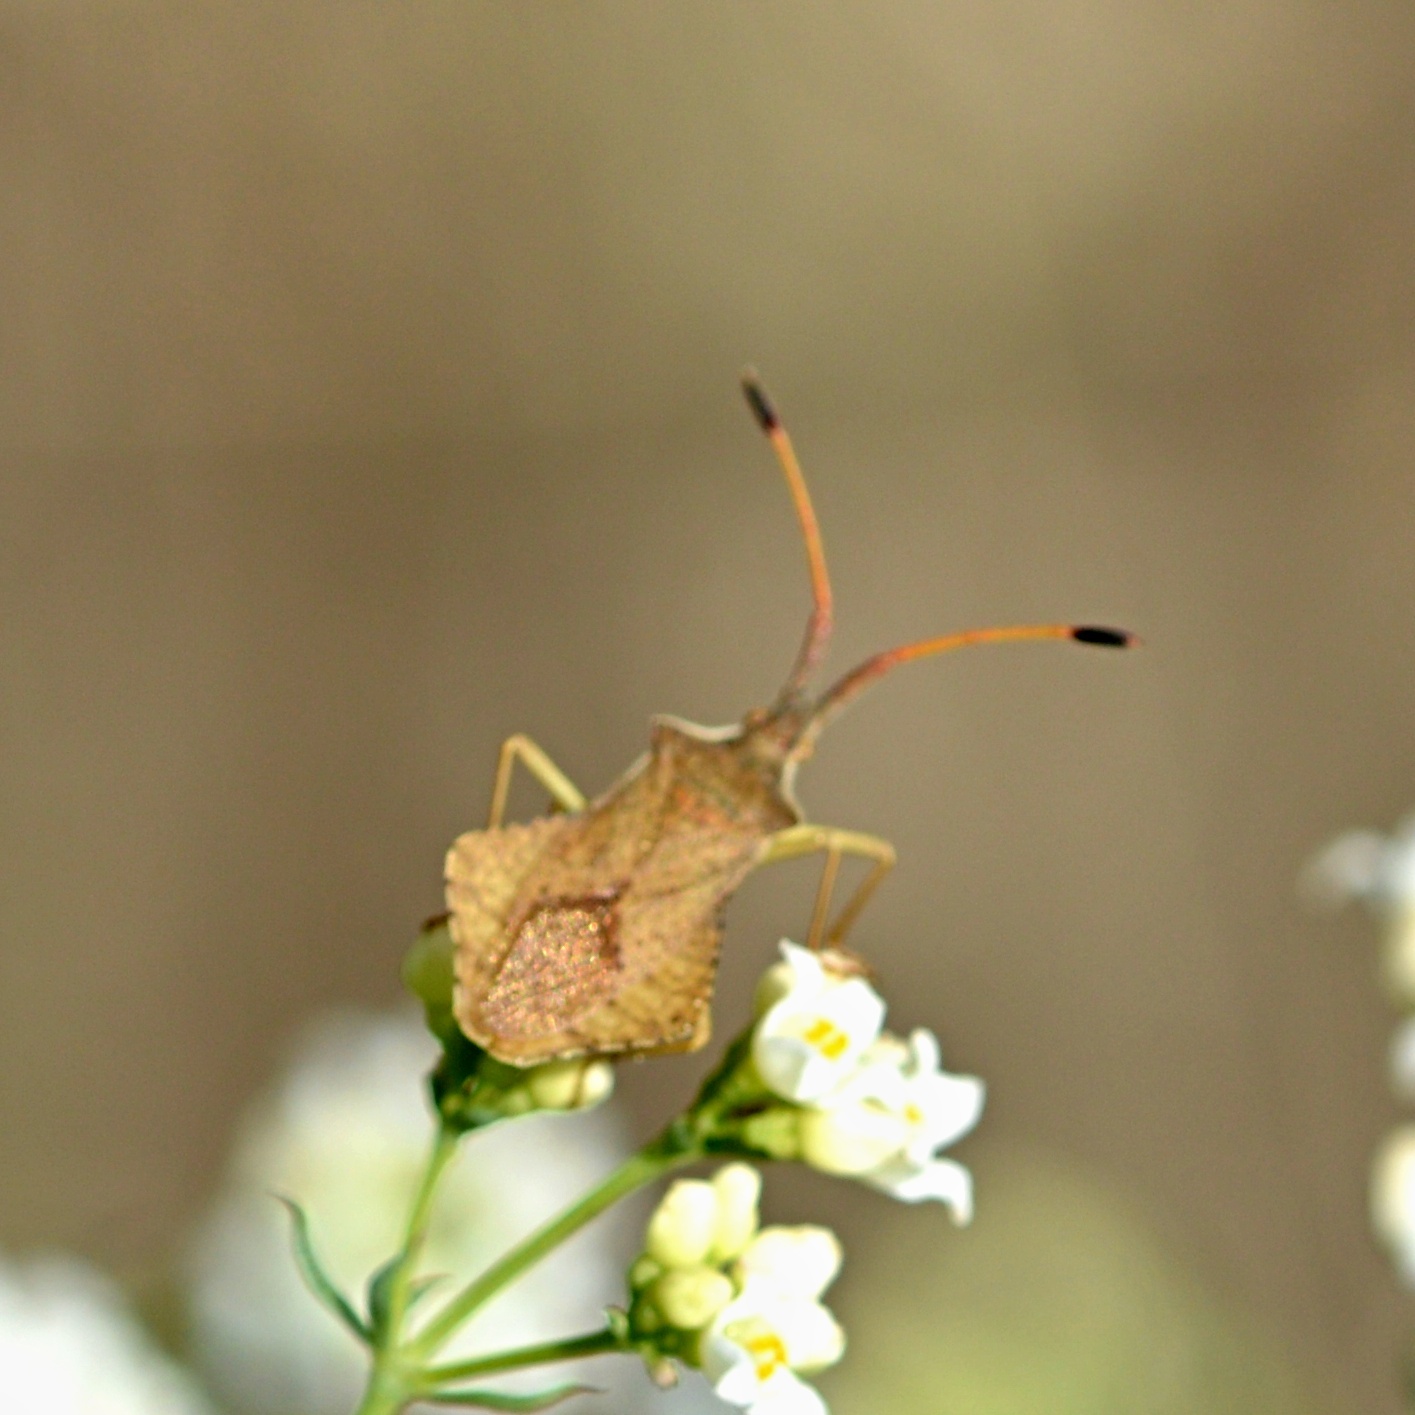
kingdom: Animalia
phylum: Arthropoda
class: Insecta
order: Hemiptera
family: Coreidae
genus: Syromastus
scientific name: Syromastus rhombeus
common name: Rhombic leatherbug
